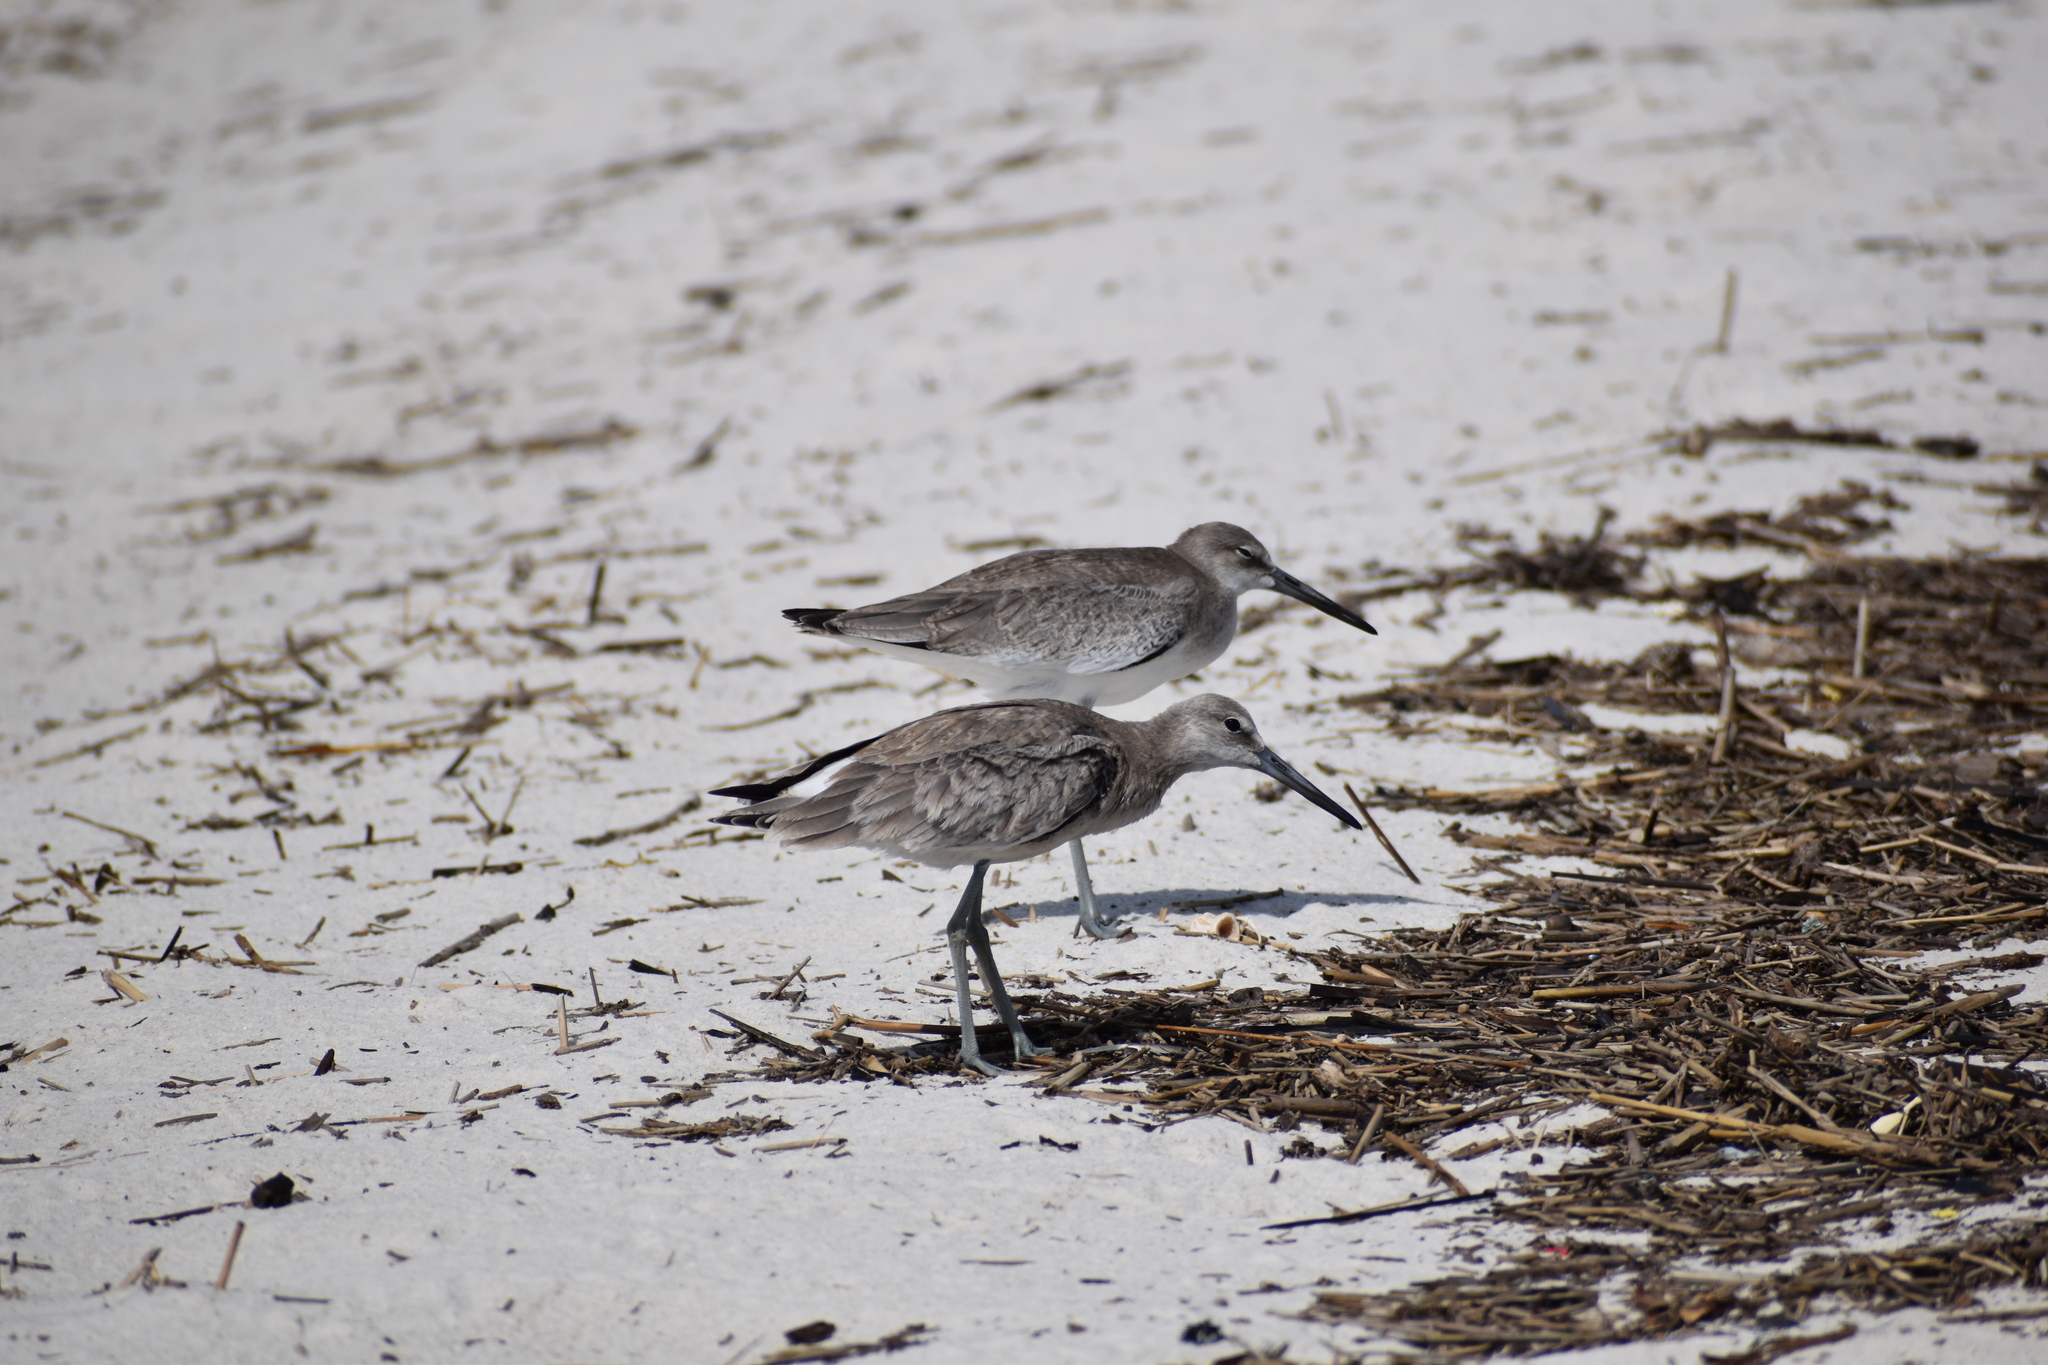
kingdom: Animalia
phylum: Chordata
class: Aves
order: Charadriiformes
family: Scolopacidae
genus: Tringa
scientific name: Tringa semipalmata
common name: Willet
